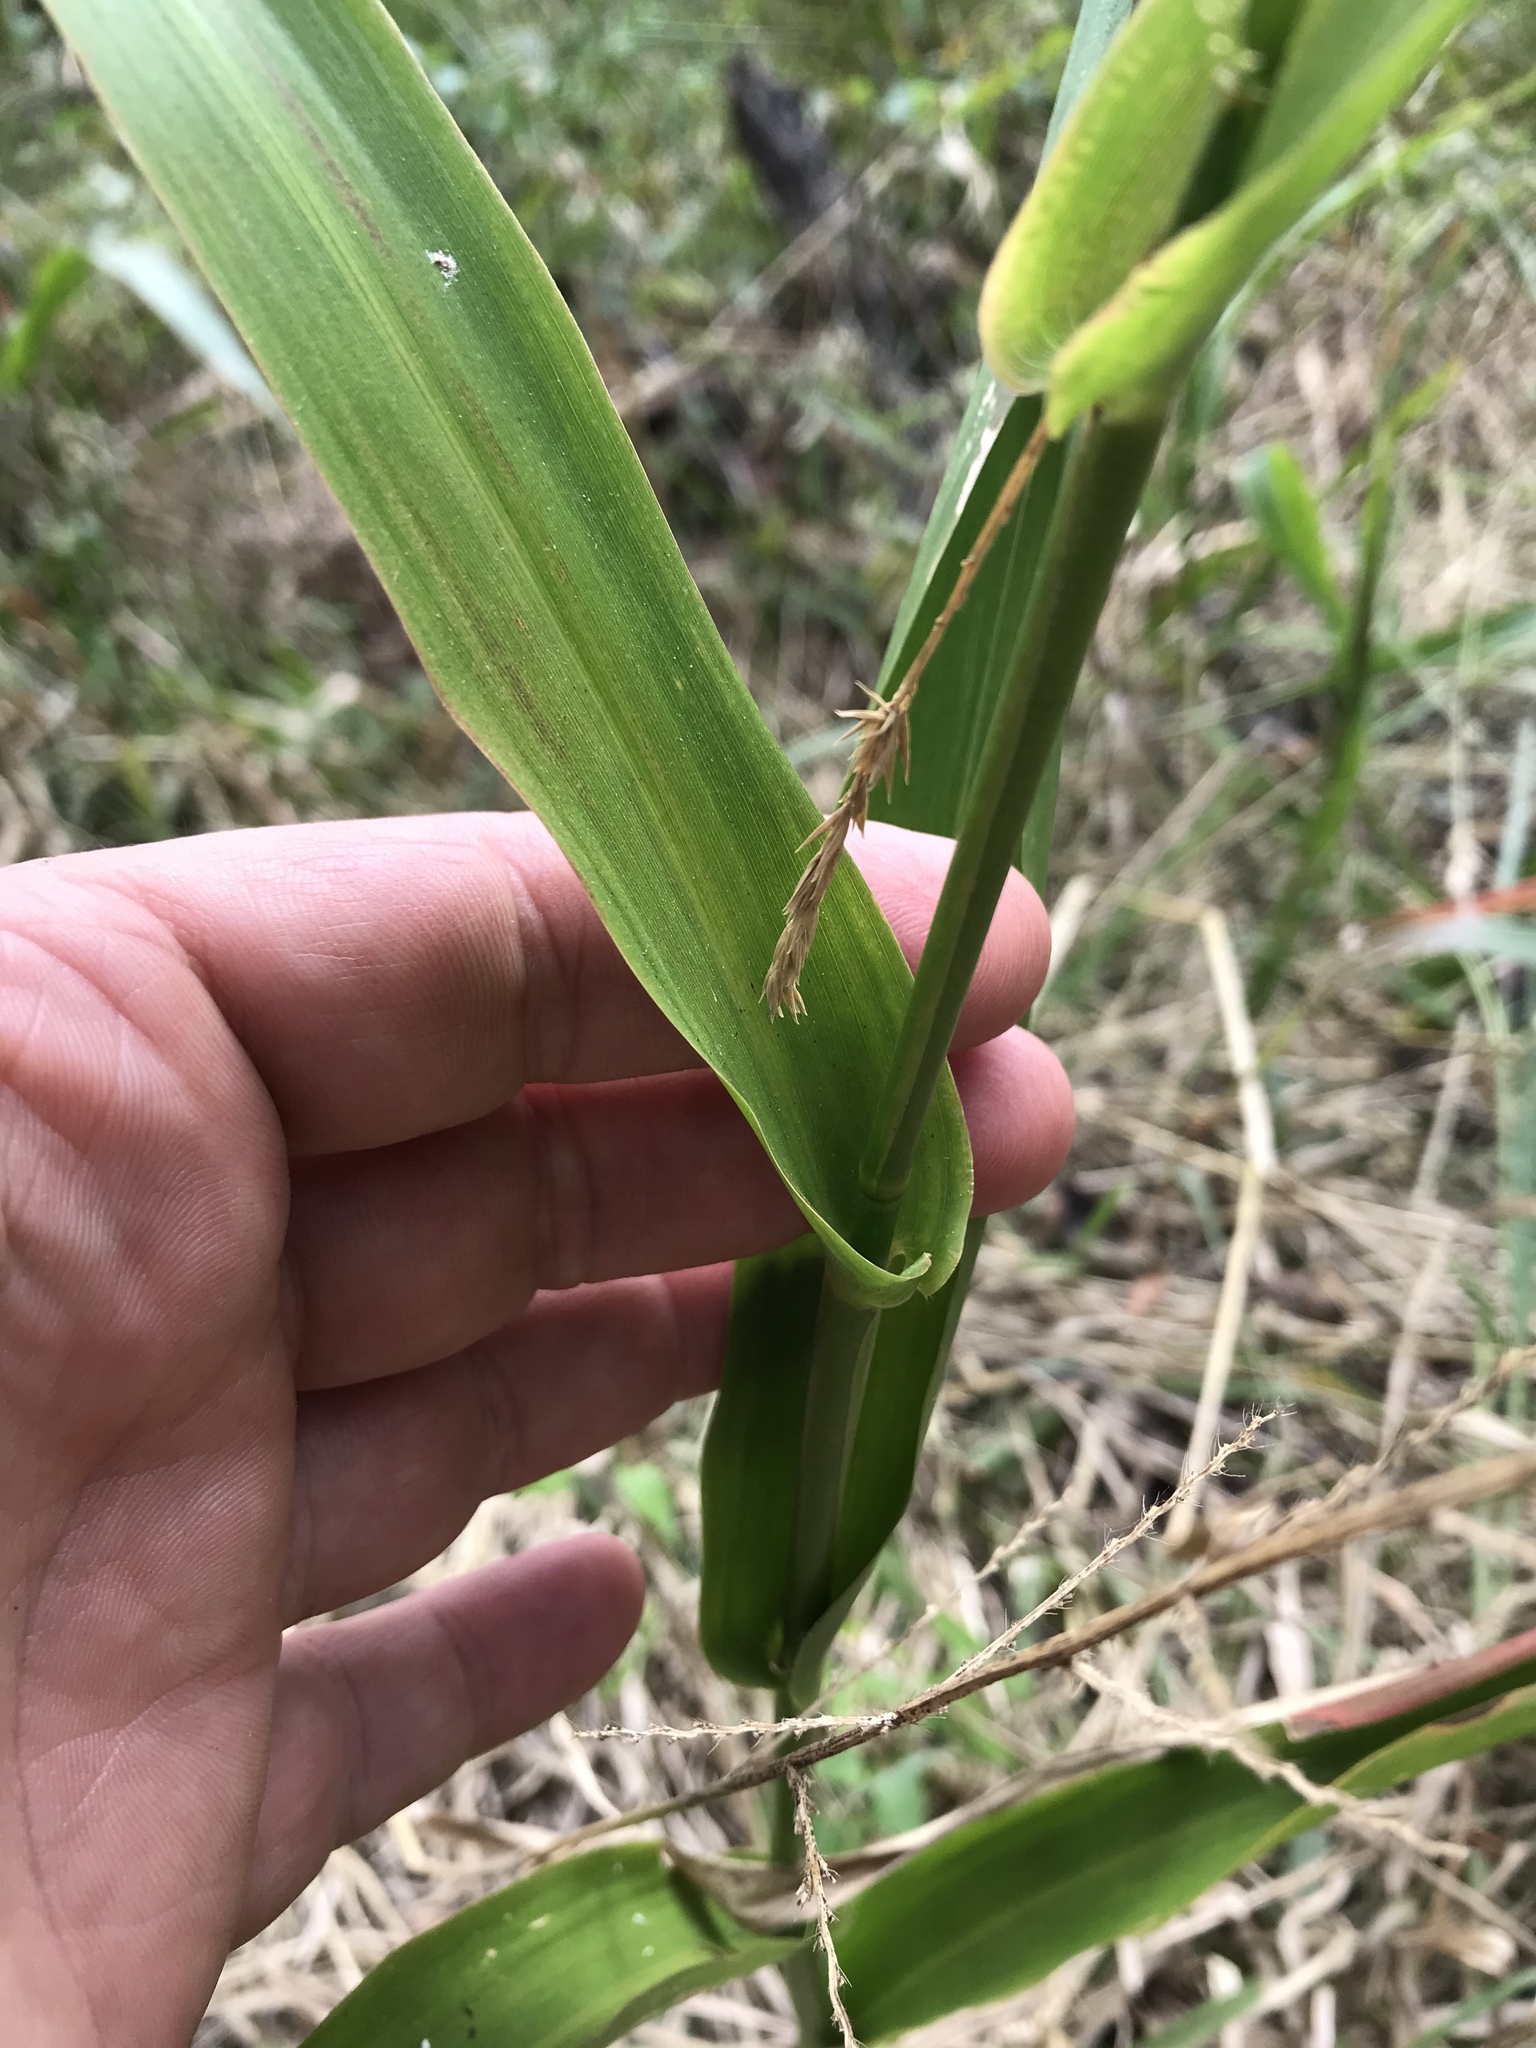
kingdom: Plantae
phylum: Tracheophyta
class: Liliopsida
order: Poales
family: Poaceae
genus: Panicum
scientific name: Panicum gymnocarpon
